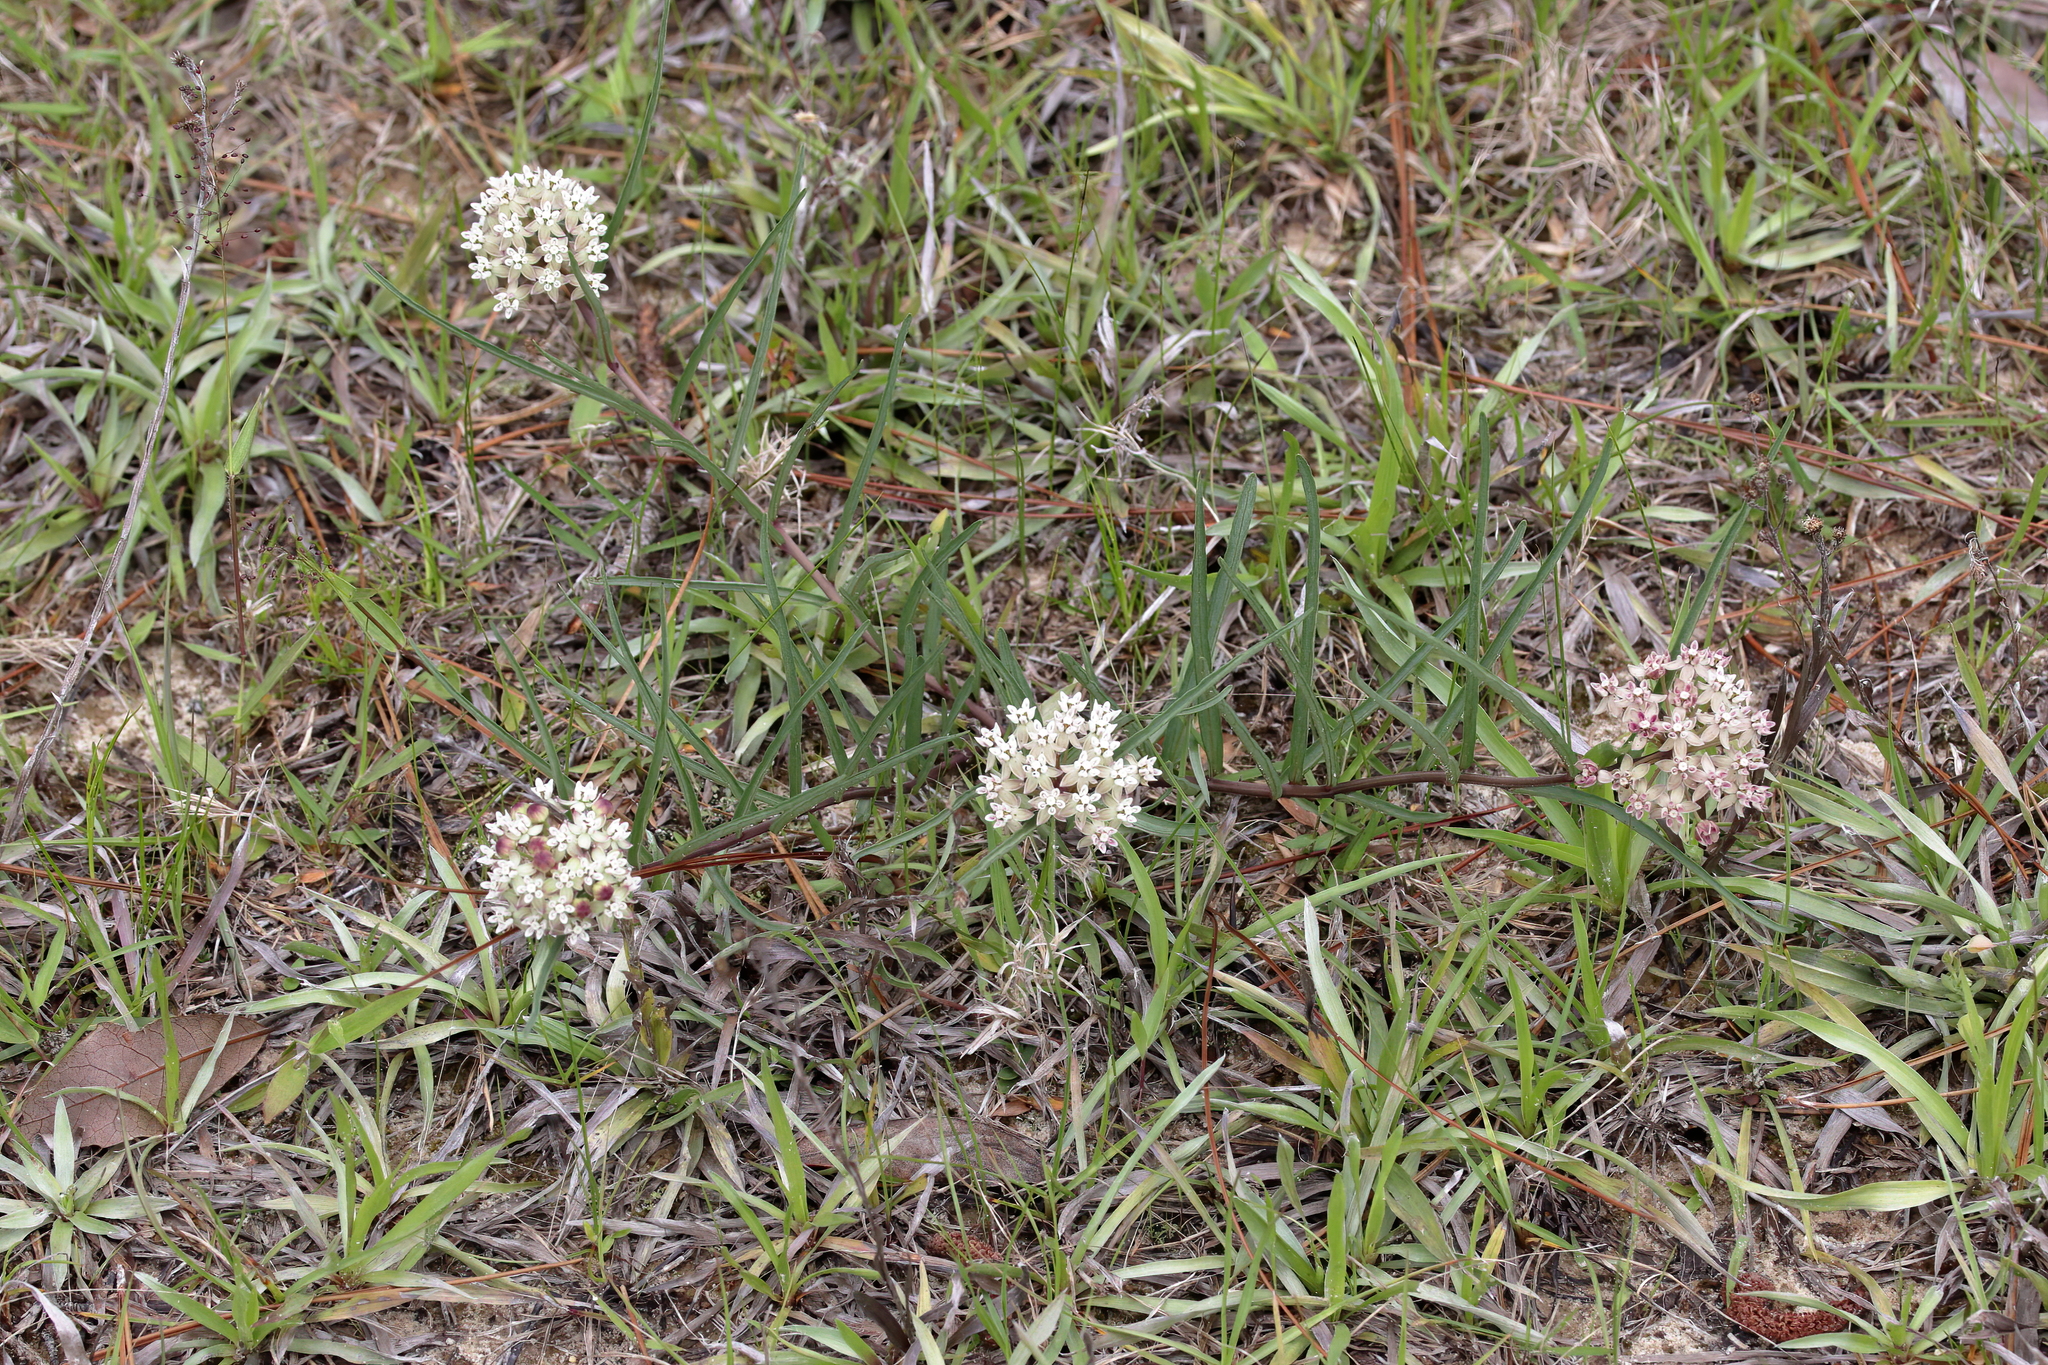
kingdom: Plantae
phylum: Tracheophyta
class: Magnoliopsida
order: Gentianales
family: Apocynaceae
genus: Asclepias
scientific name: Asclepias michauxii
